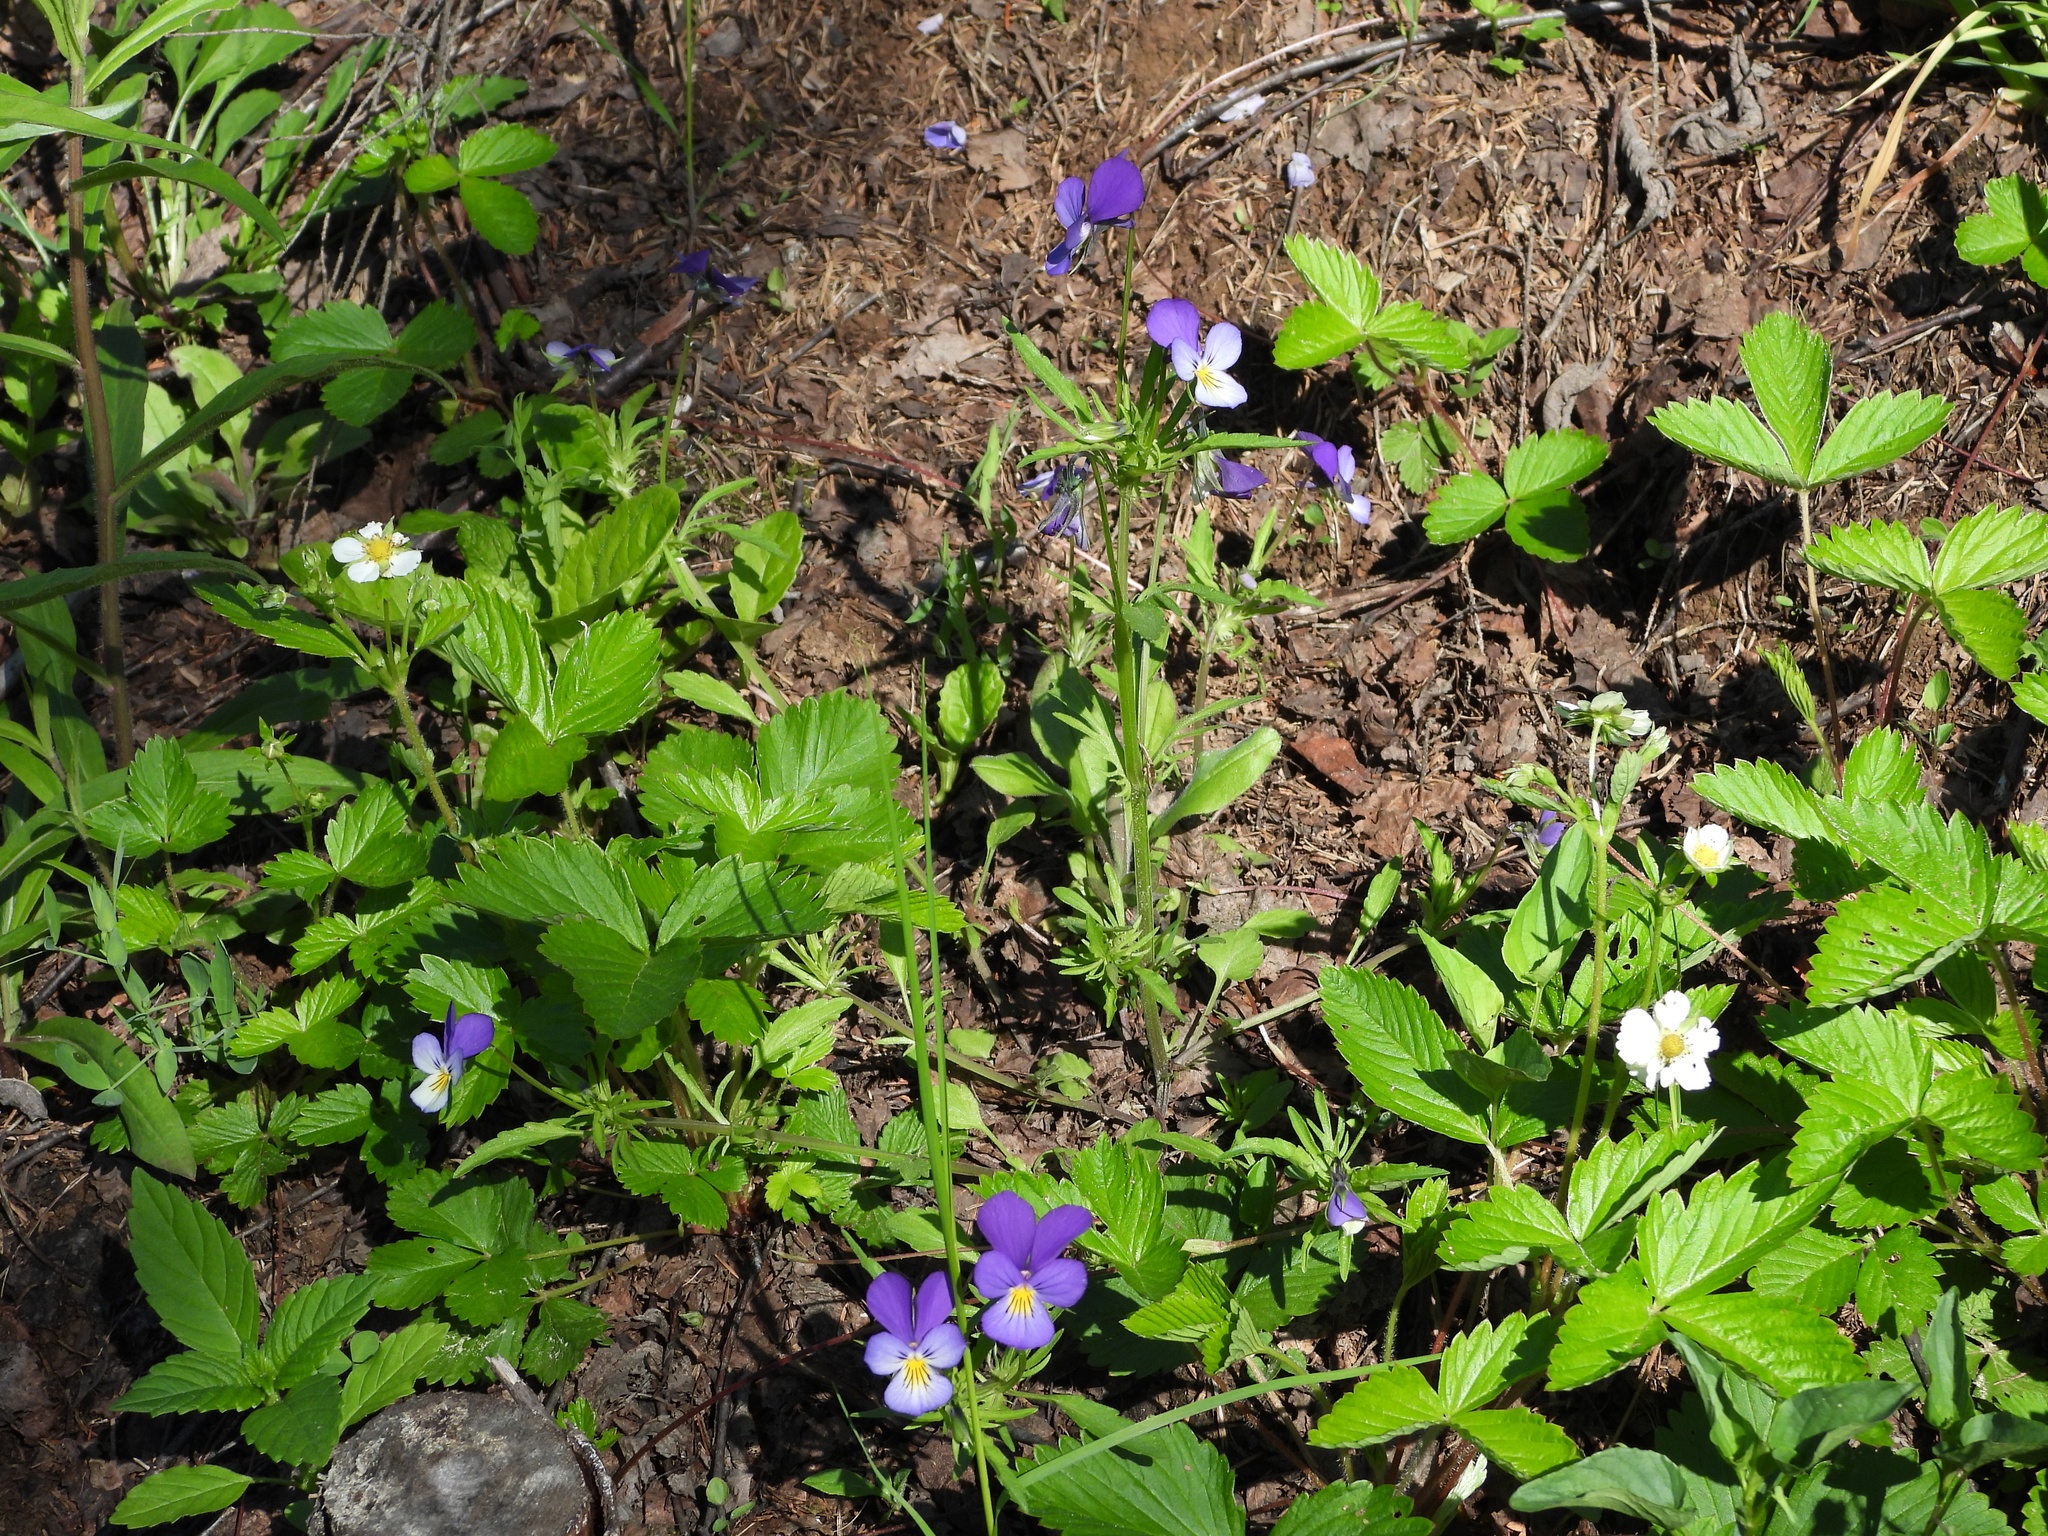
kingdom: Plantae
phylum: Tracheophyta
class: Magnoliopsida
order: Malpighiales
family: Violaceae
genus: Viola
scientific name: Viola tricolor
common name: Pansy
